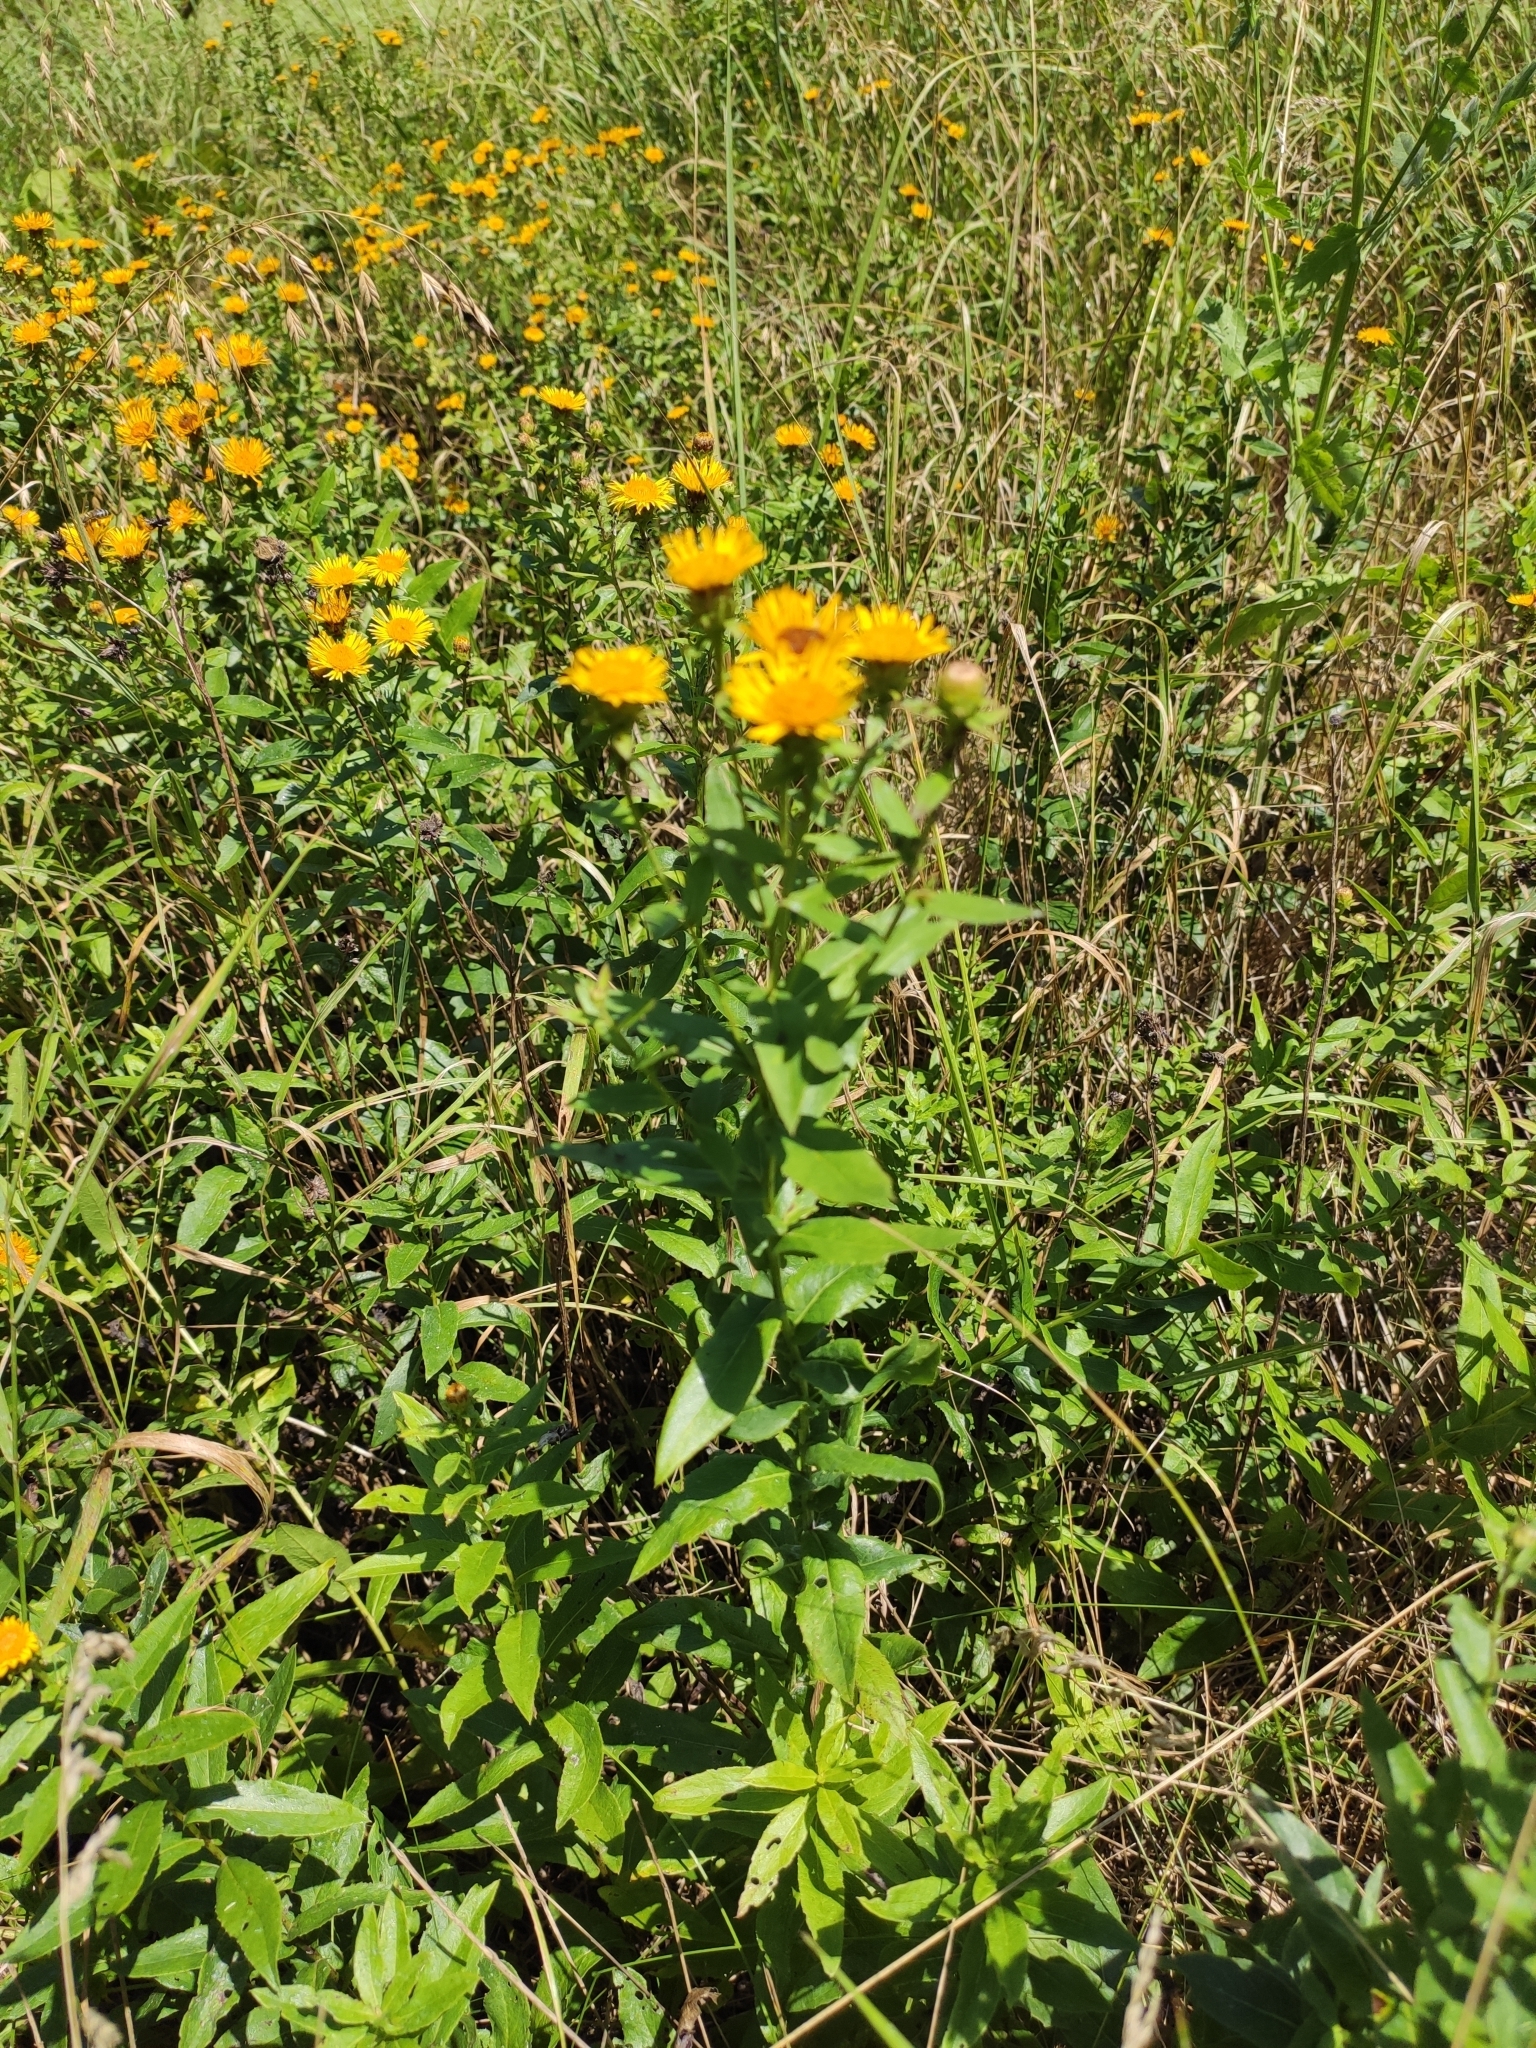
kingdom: Plantae
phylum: Tracheophyta
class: Magnoliopsida
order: Asterales
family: Asteraceae
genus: Pentanema
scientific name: Pentanema asperum
